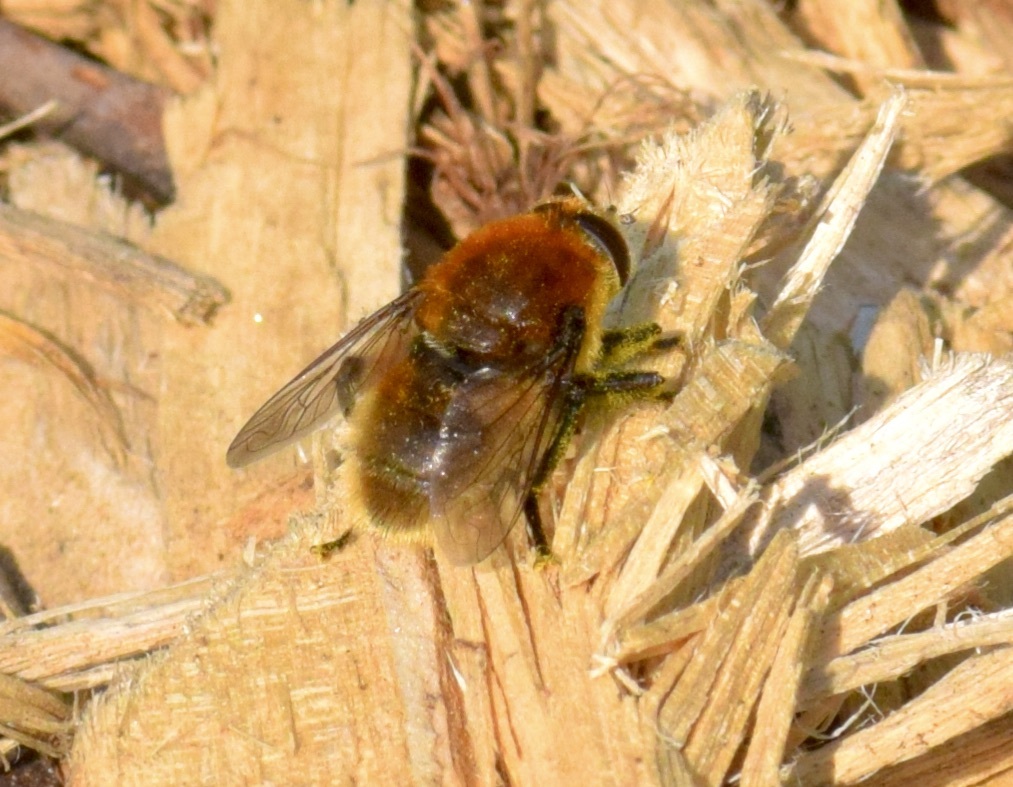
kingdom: Animalia
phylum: Arthropoda
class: Insecta
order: Diptera
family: Syrphidae
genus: Merodon
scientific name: Merodon equestris
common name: Greater bulb-fly
